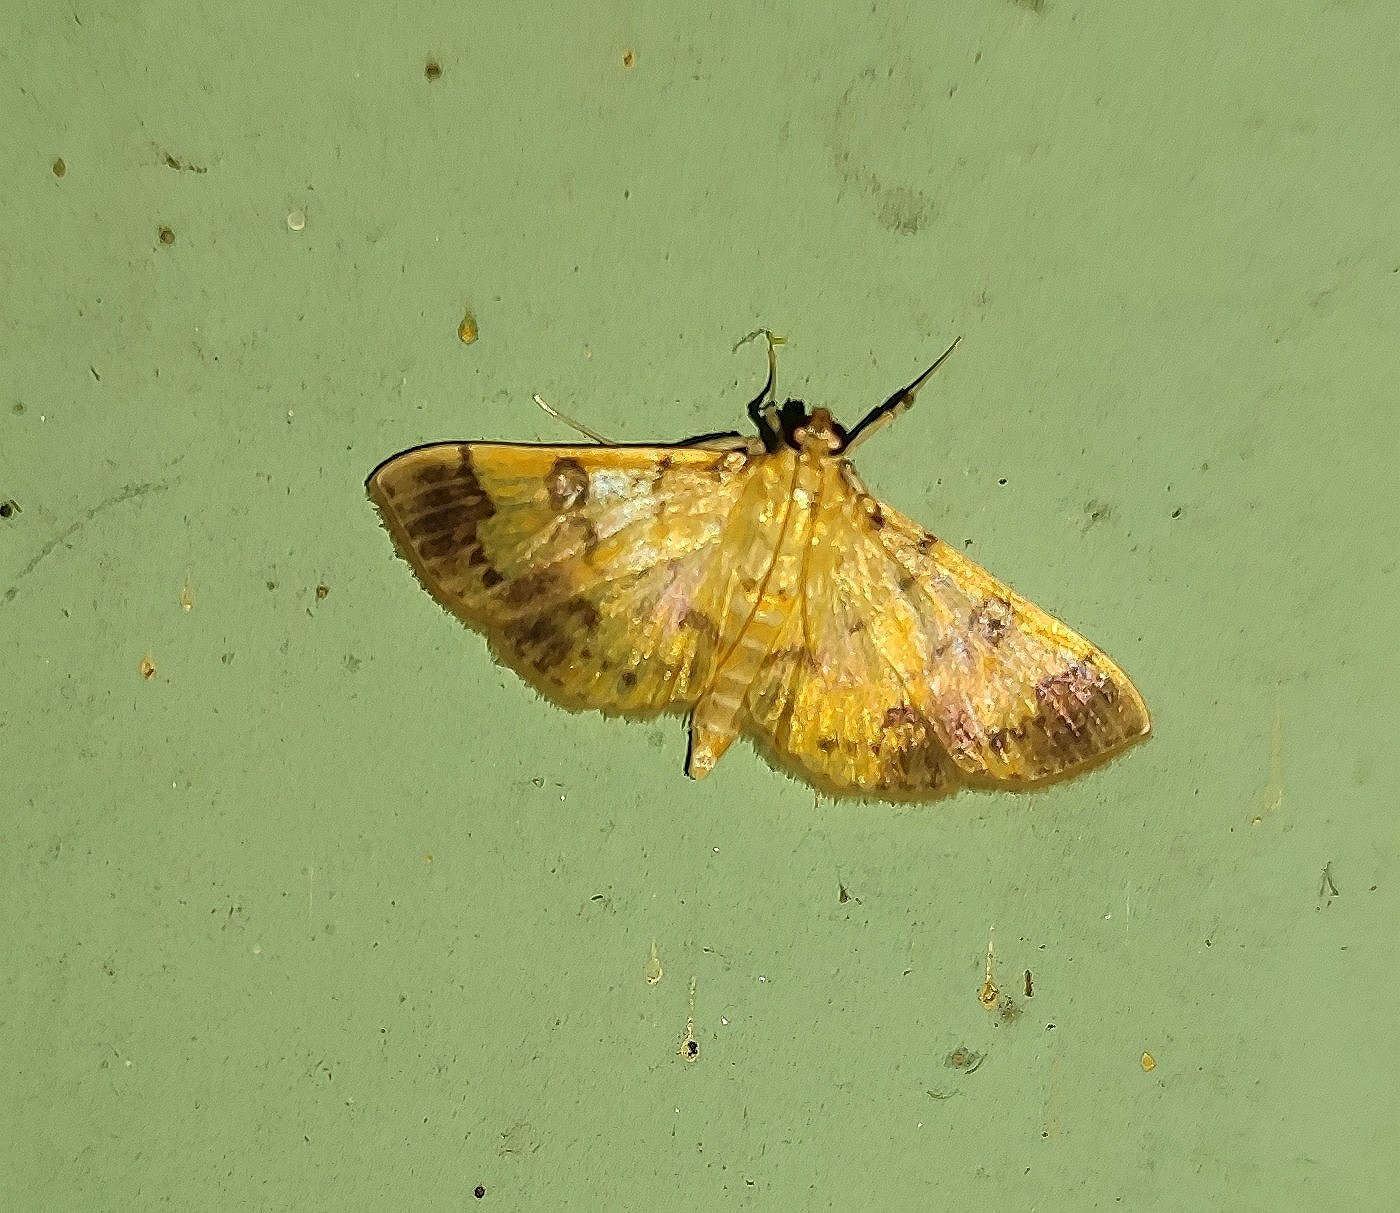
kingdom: Animalia
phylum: Arthropoda
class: Insecta
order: Lepidoptera
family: Crambidae
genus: Patania
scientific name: Patania iopasalis
